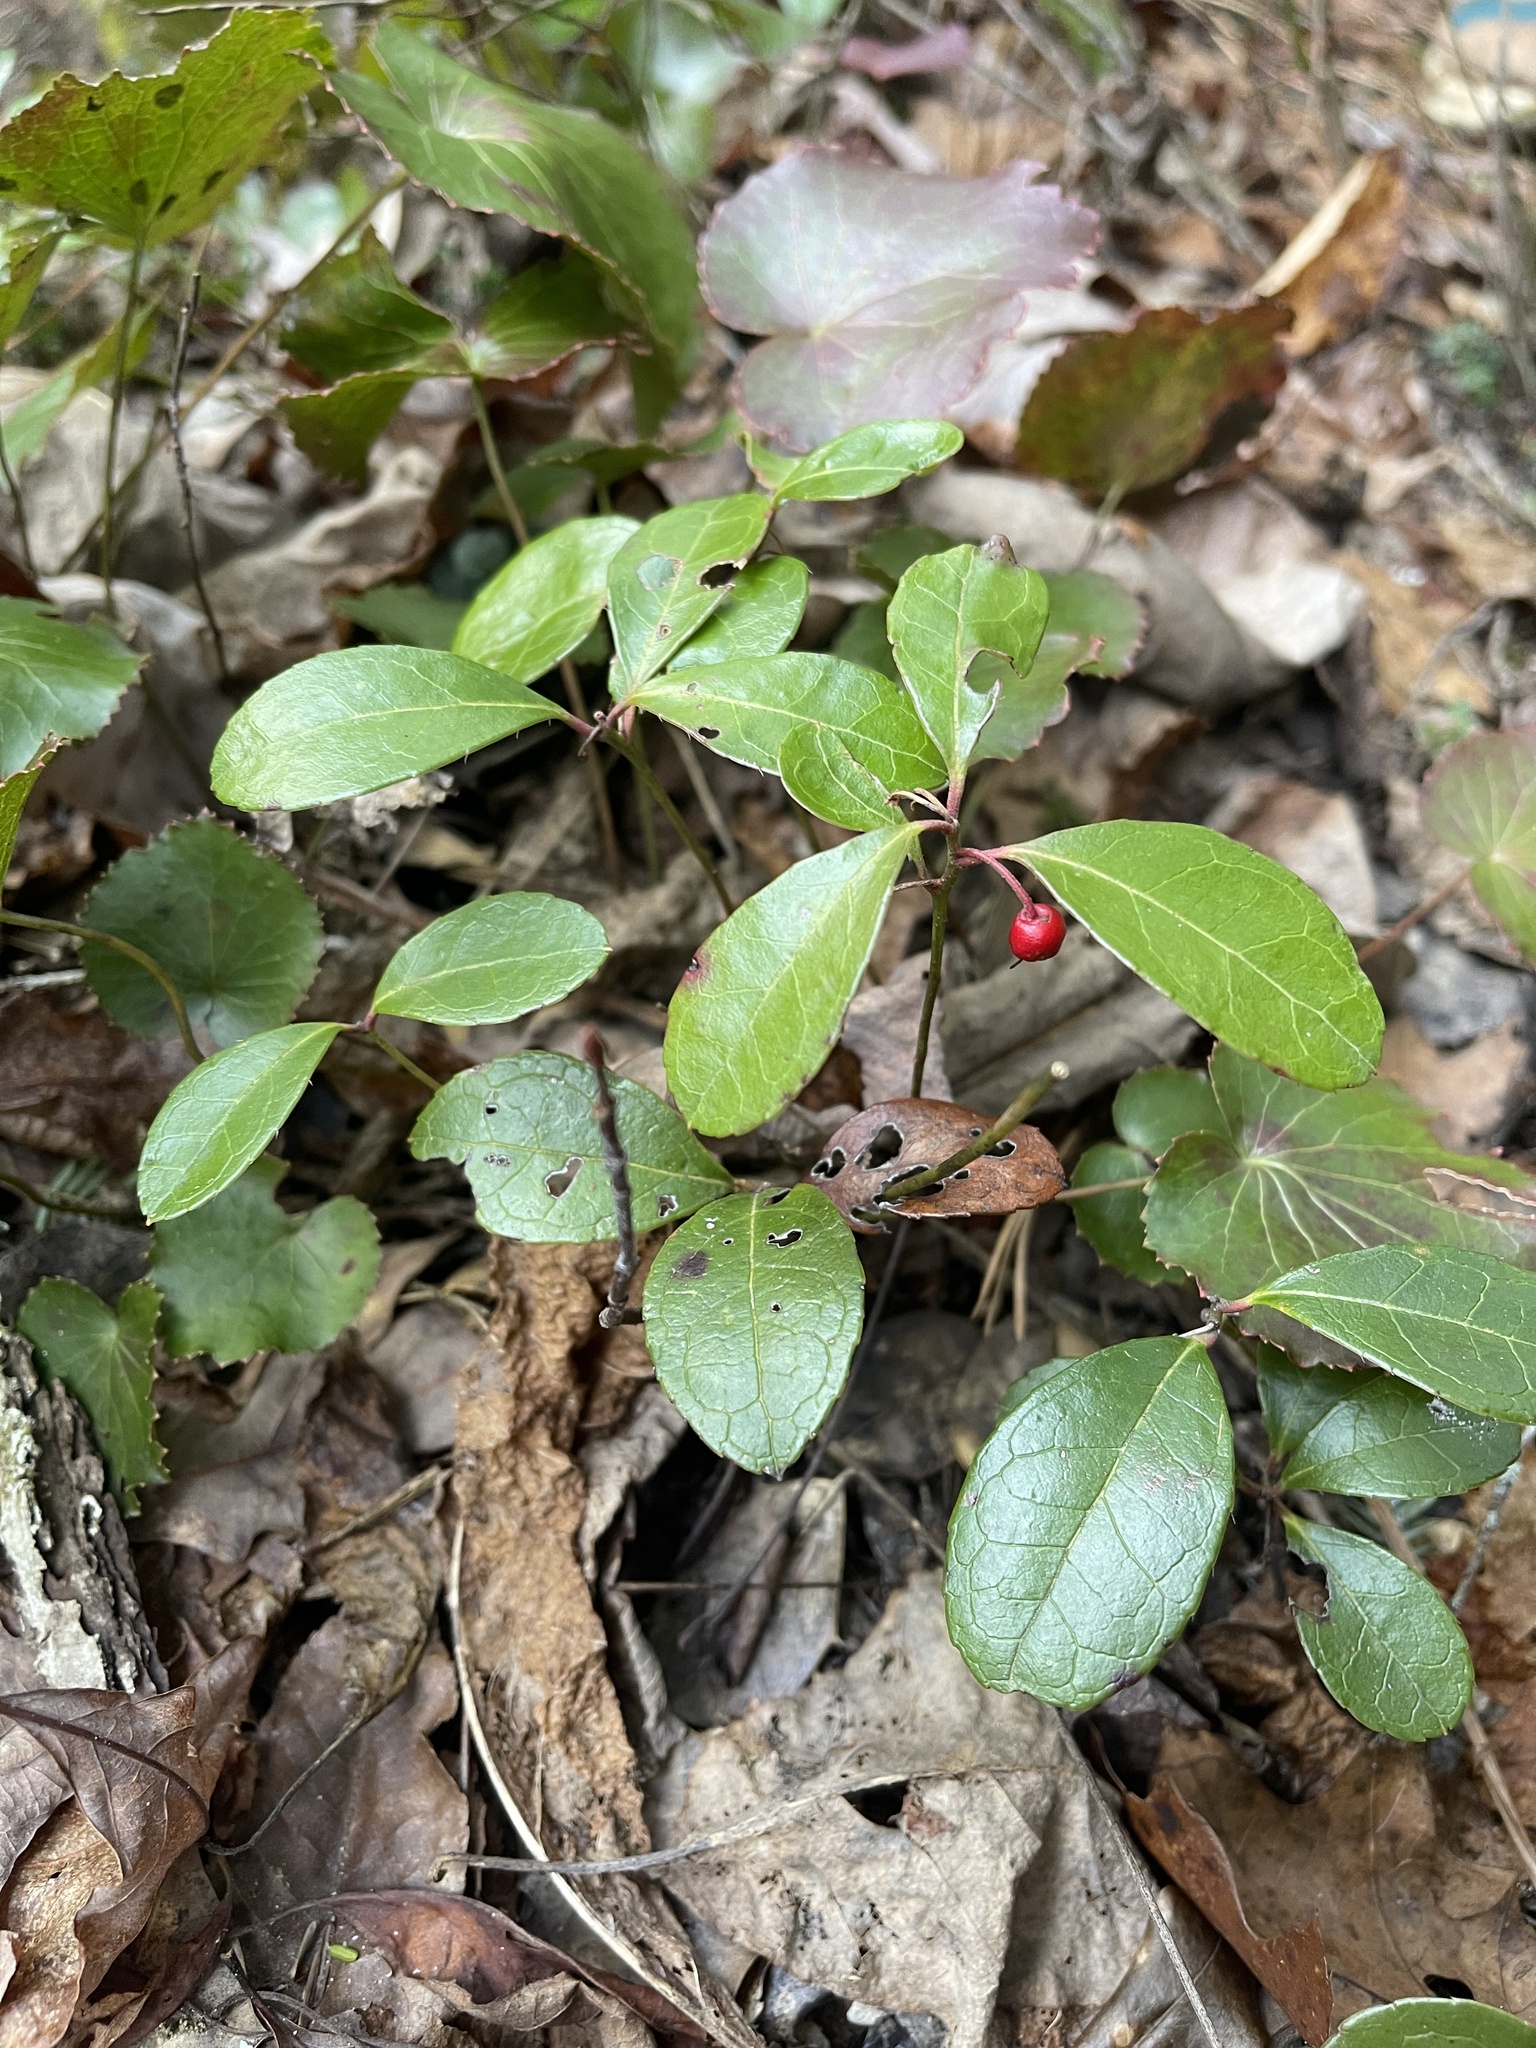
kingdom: Plantae
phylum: Tracheophyta
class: Magnoliopsida
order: Ericales
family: Ericaceae
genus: Gaultheria
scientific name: Gaultheria procumbens
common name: Checkerberry
